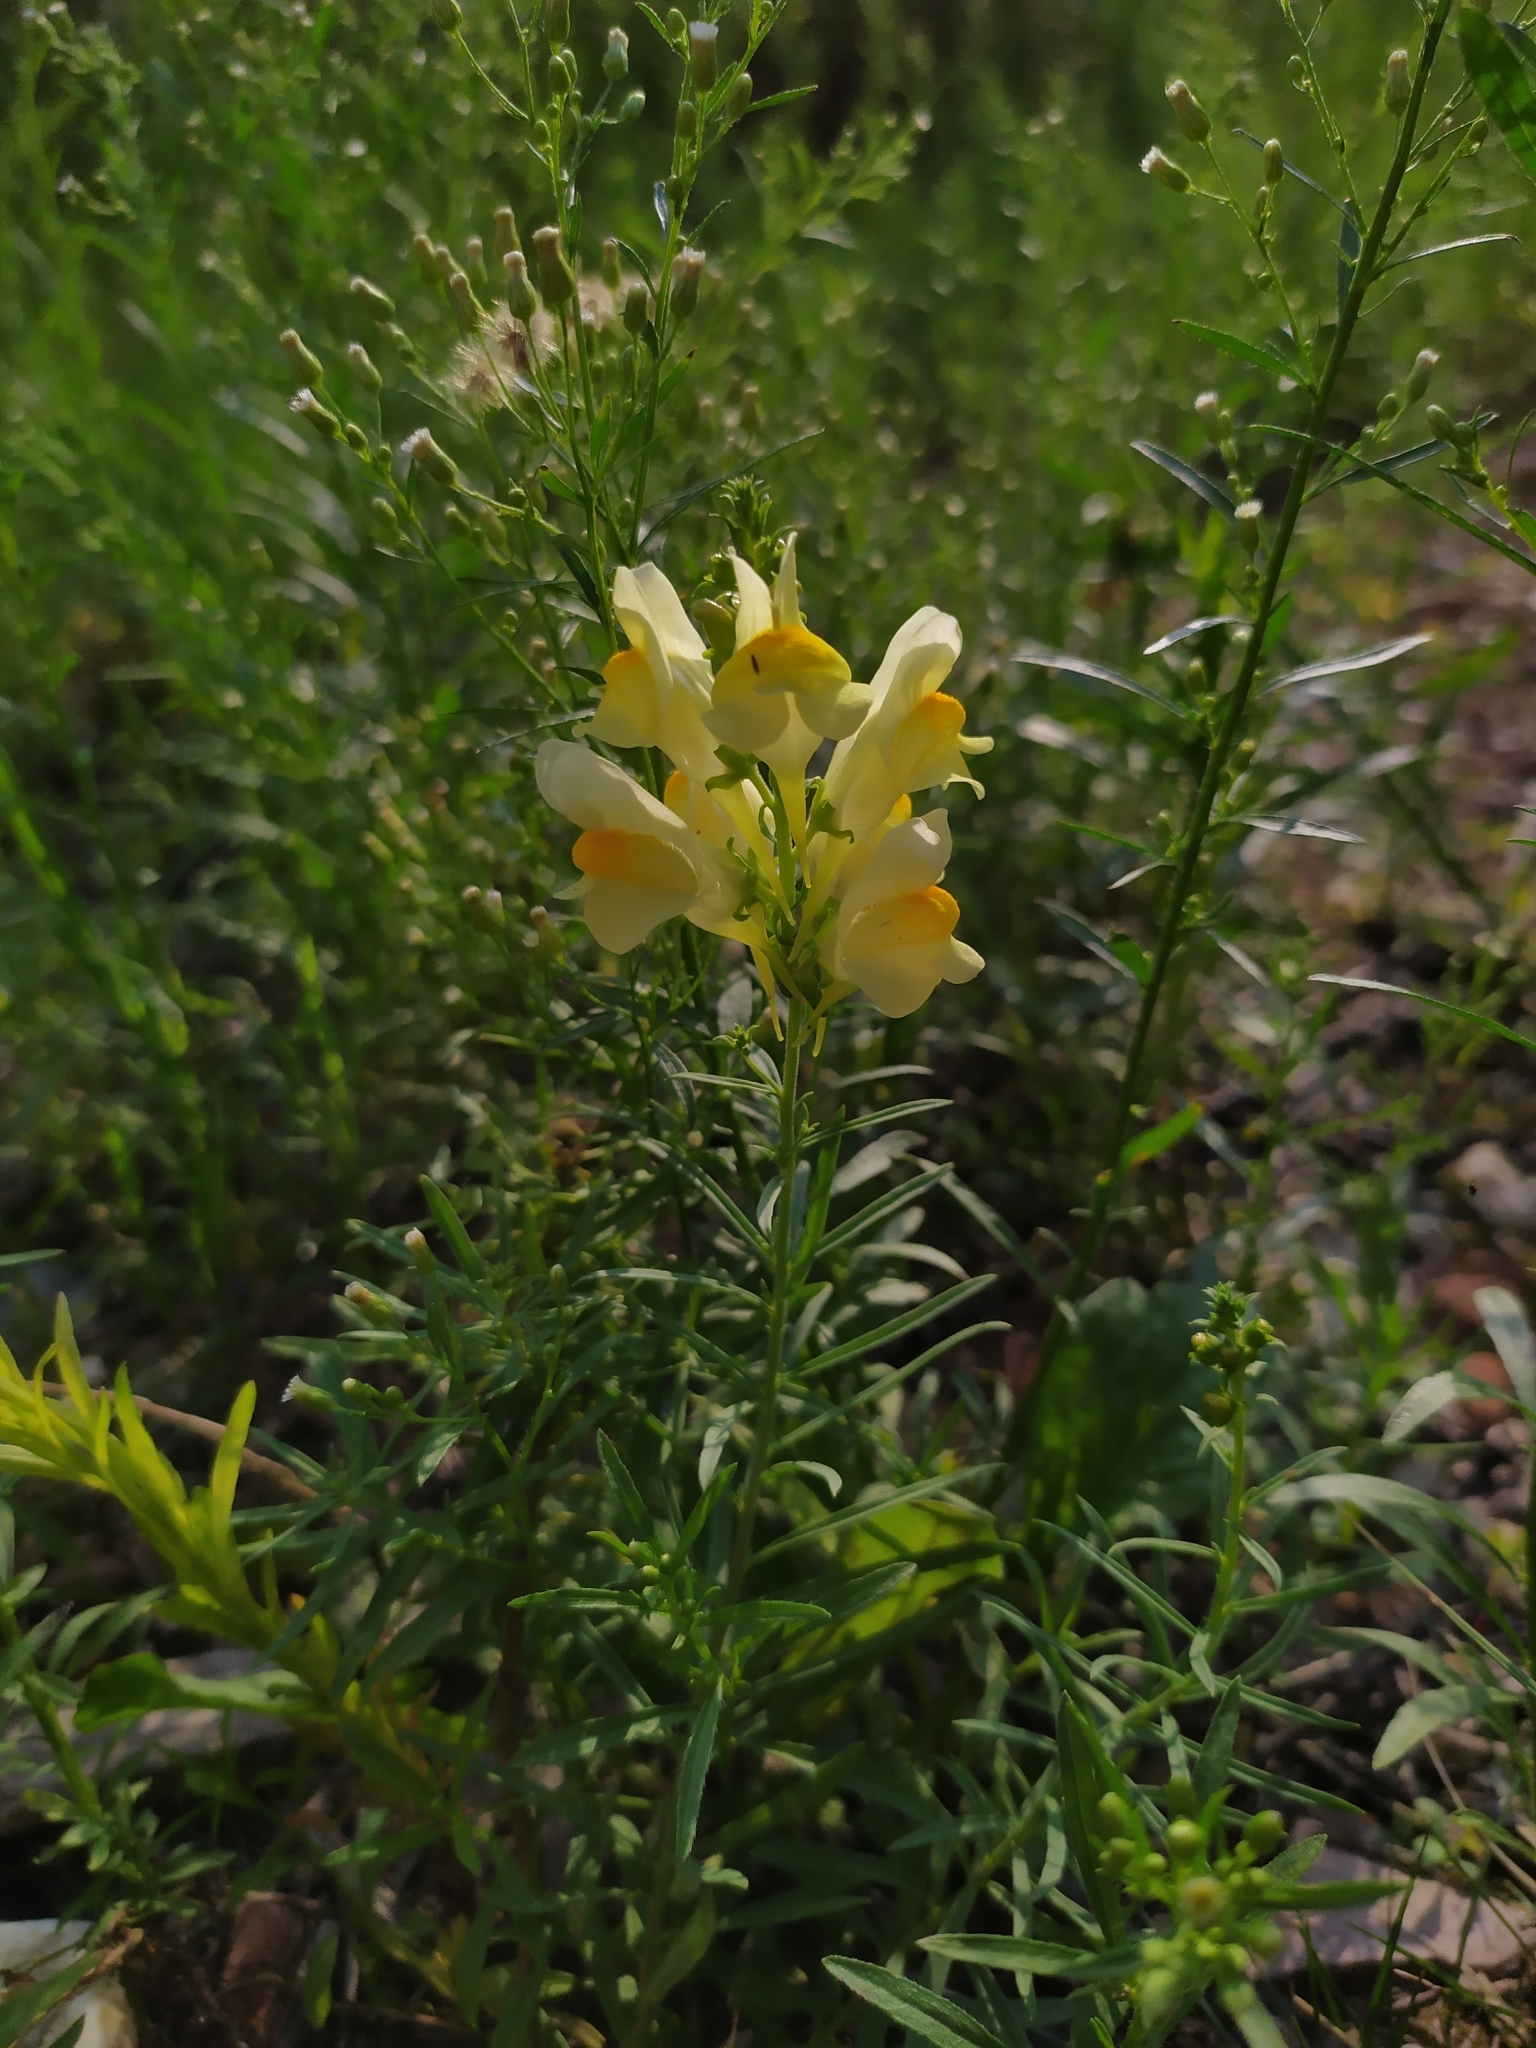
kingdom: Plantae
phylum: Tracheophyta
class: Magnoliopsida
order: Lamiales
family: Plantaginaceae
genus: Linaria
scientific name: Linaria vulgaris
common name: Butter and eggs
